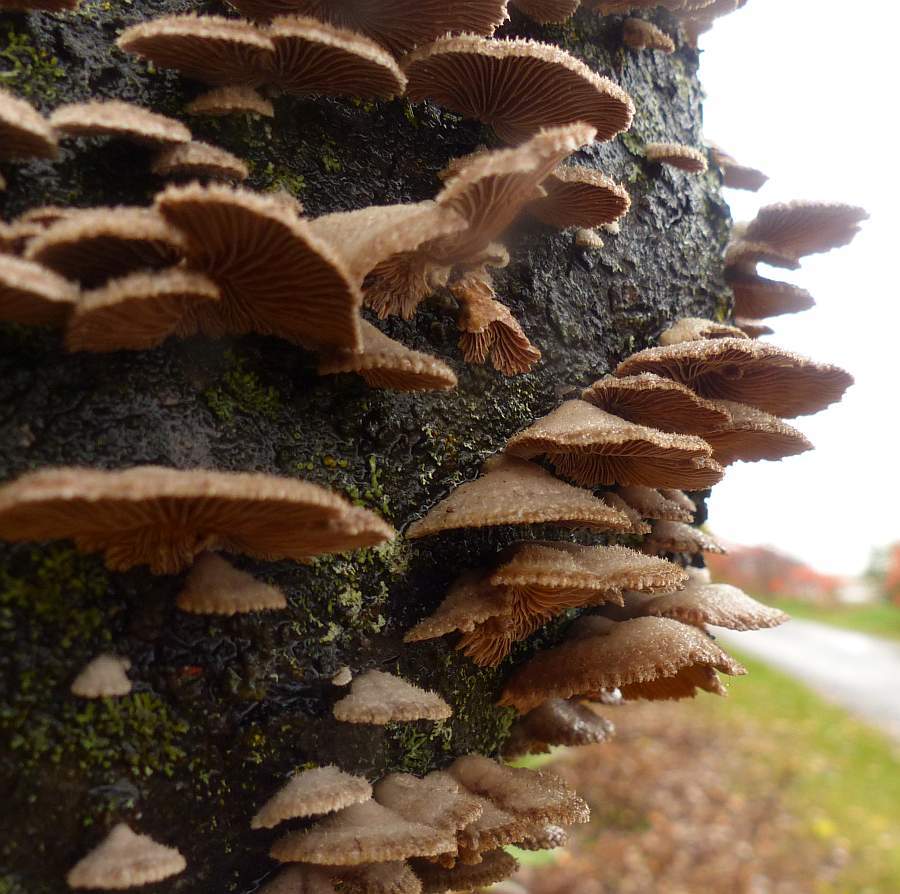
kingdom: Fungi
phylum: Basidiomycota
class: Agaricomycetes
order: Agaricales
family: Schizophyllaceae
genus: Schizophyllum
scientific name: Schizophyllum commune
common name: Common porecrust
